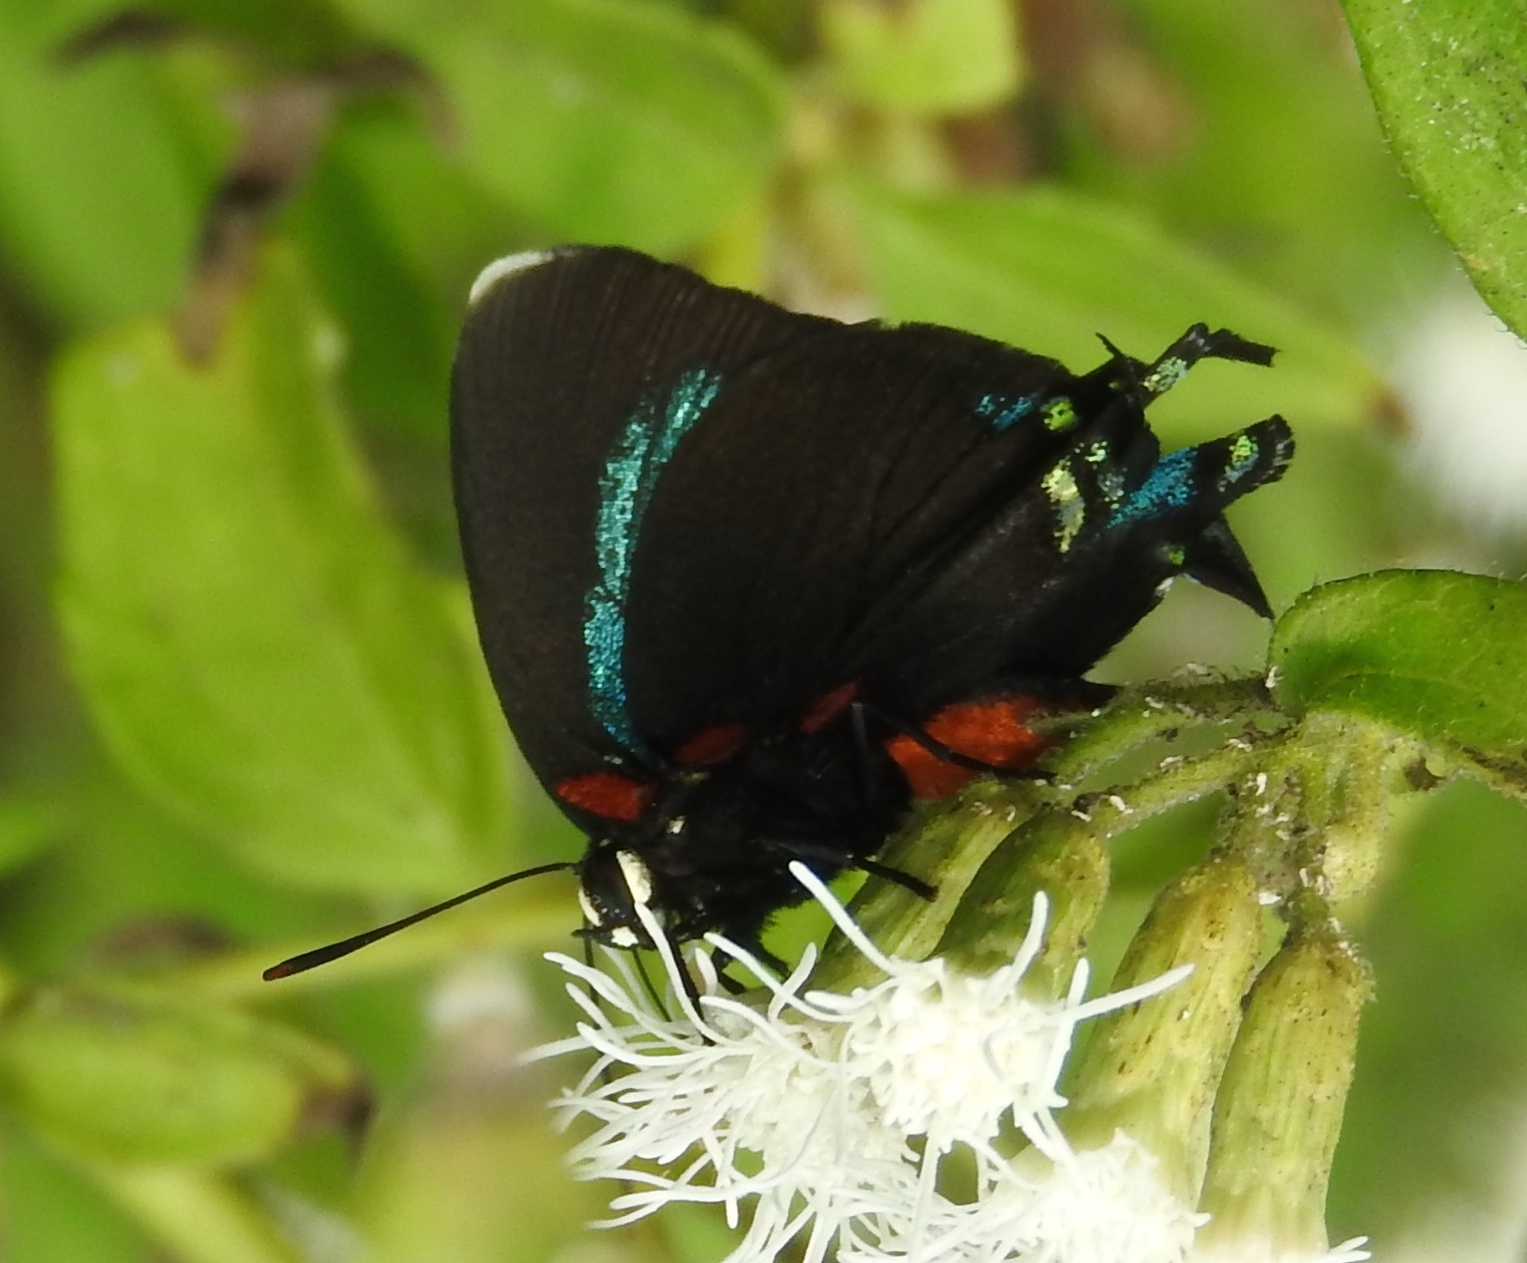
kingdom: Animalia
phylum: Arthropoda
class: Insecta
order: Lepidoptera
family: Lycaenidae
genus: Atlides
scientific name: Atlides
